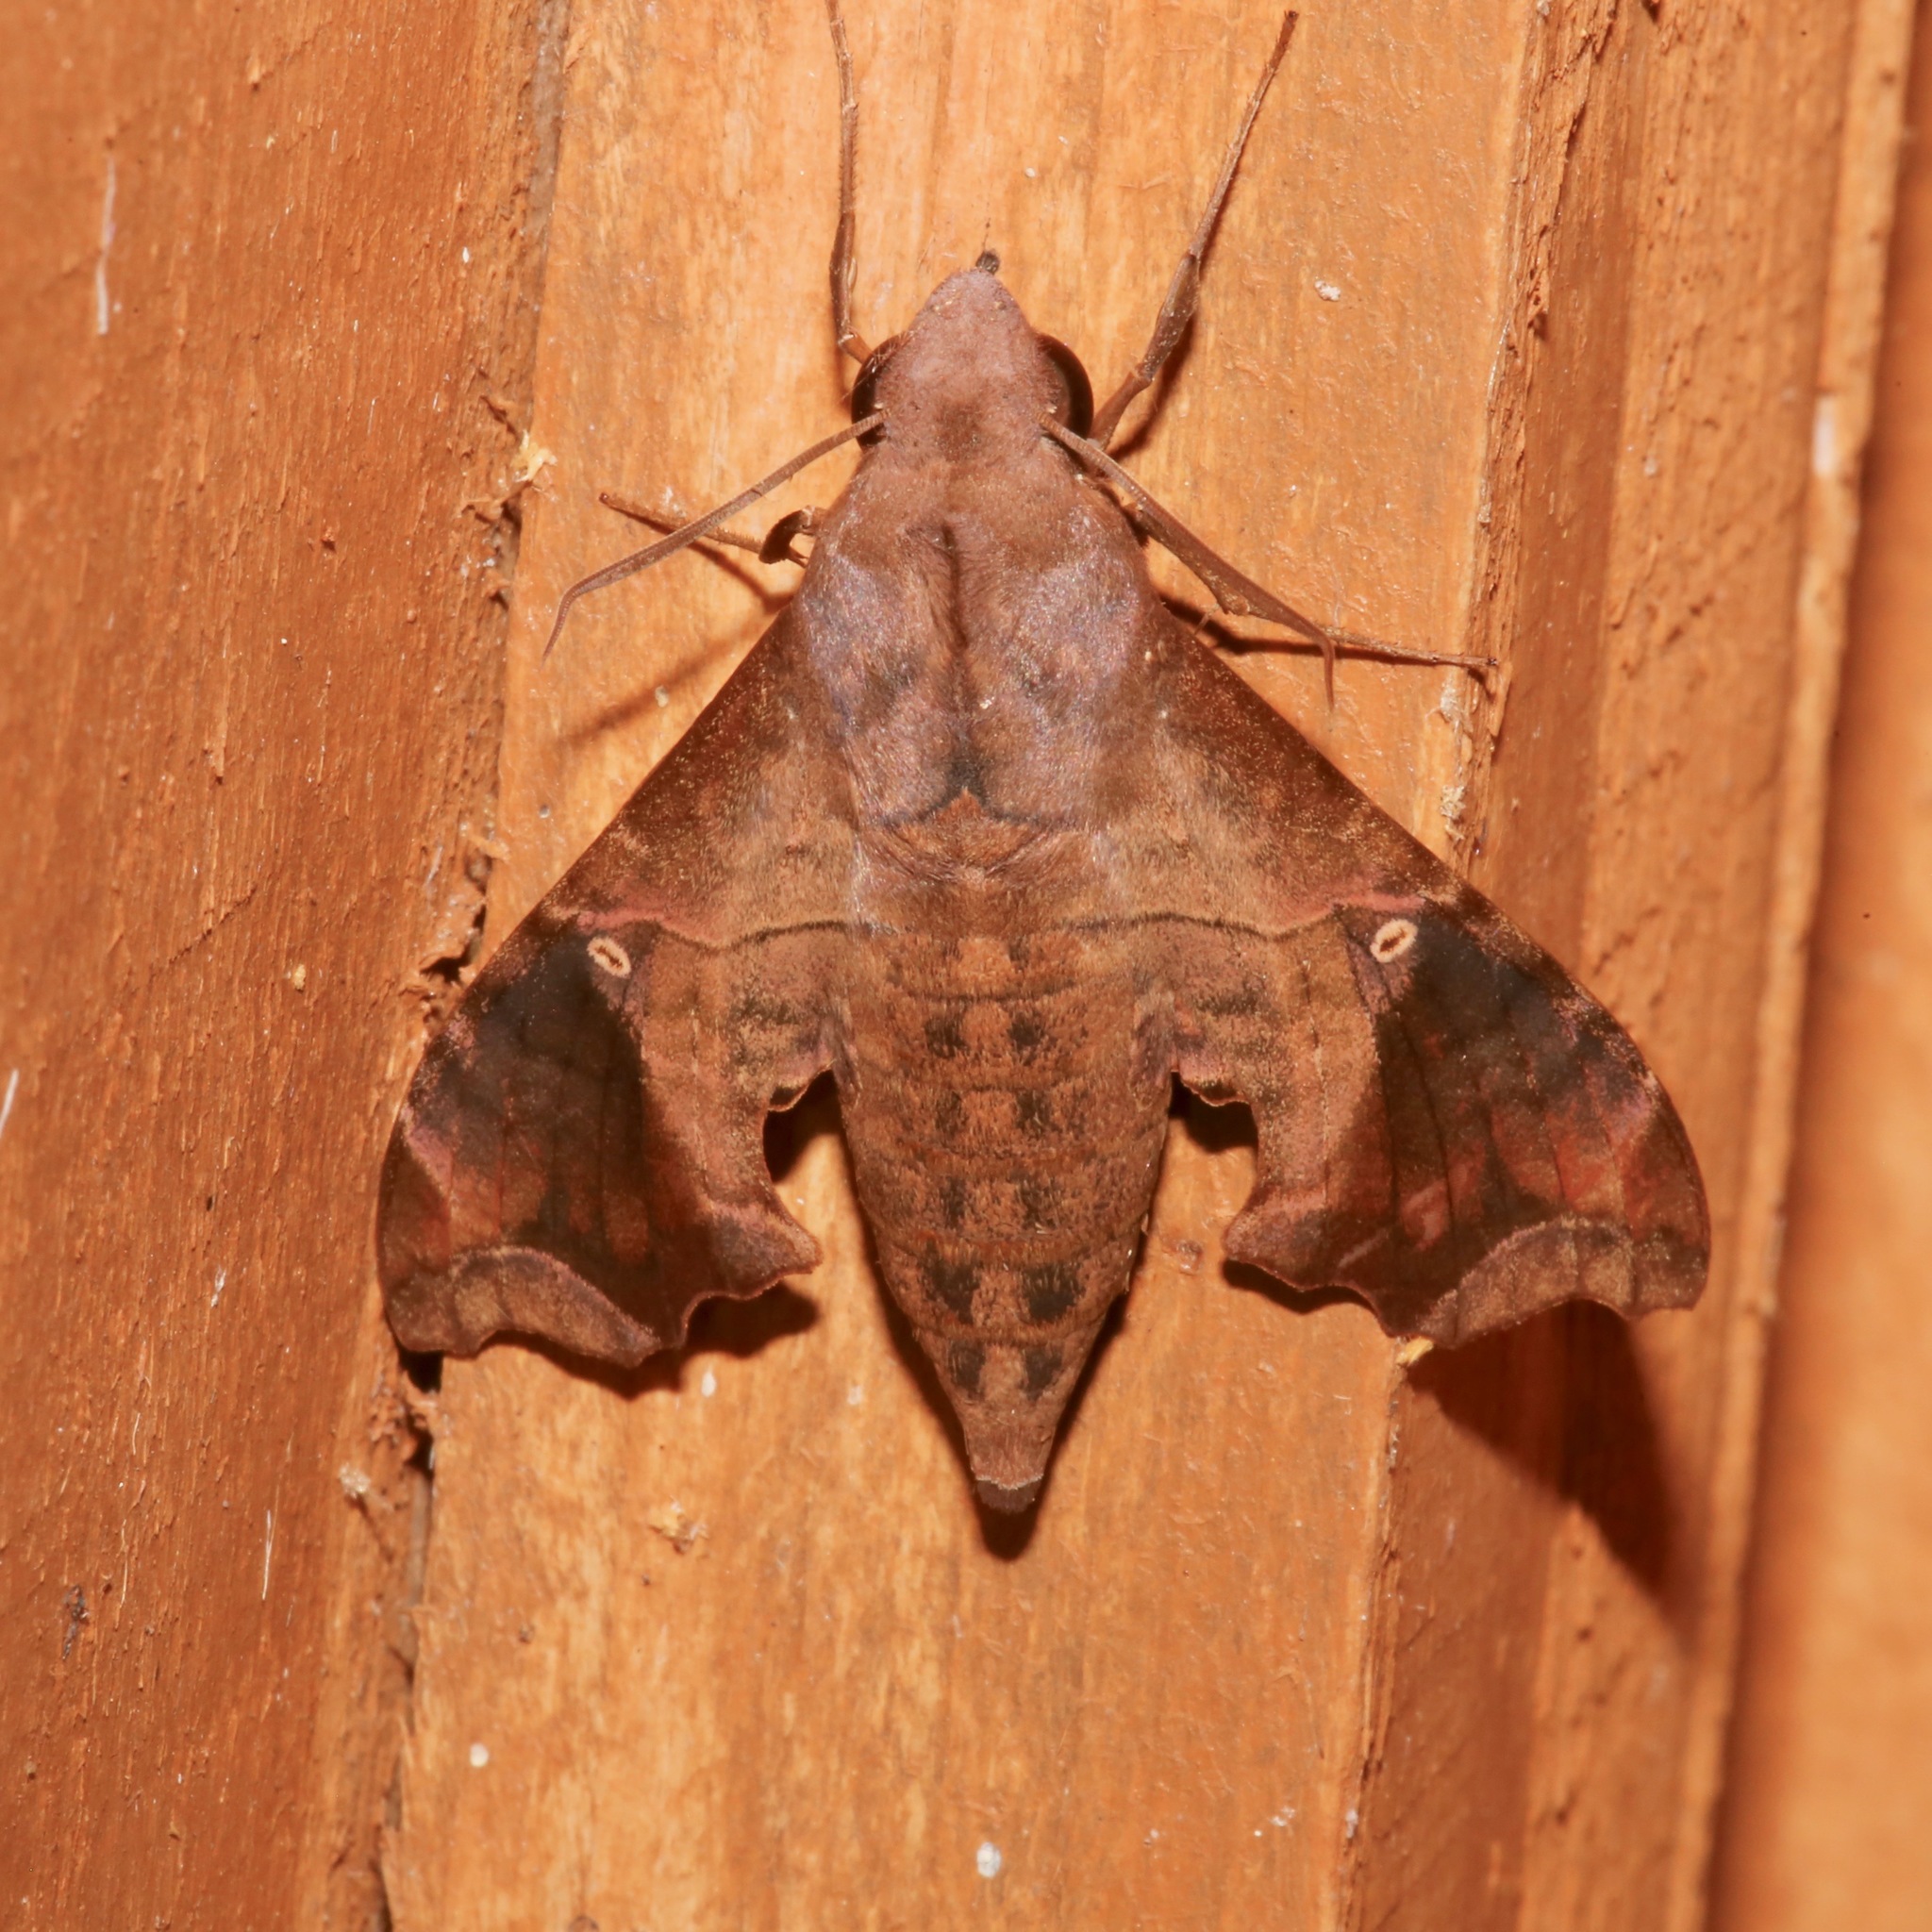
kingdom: Animalia
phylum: Arthropoda
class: Insecta
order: Lepidoptera
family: Sphingidae
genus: Enyo
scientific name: Enyo lugubris
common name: Mournful sphinx
